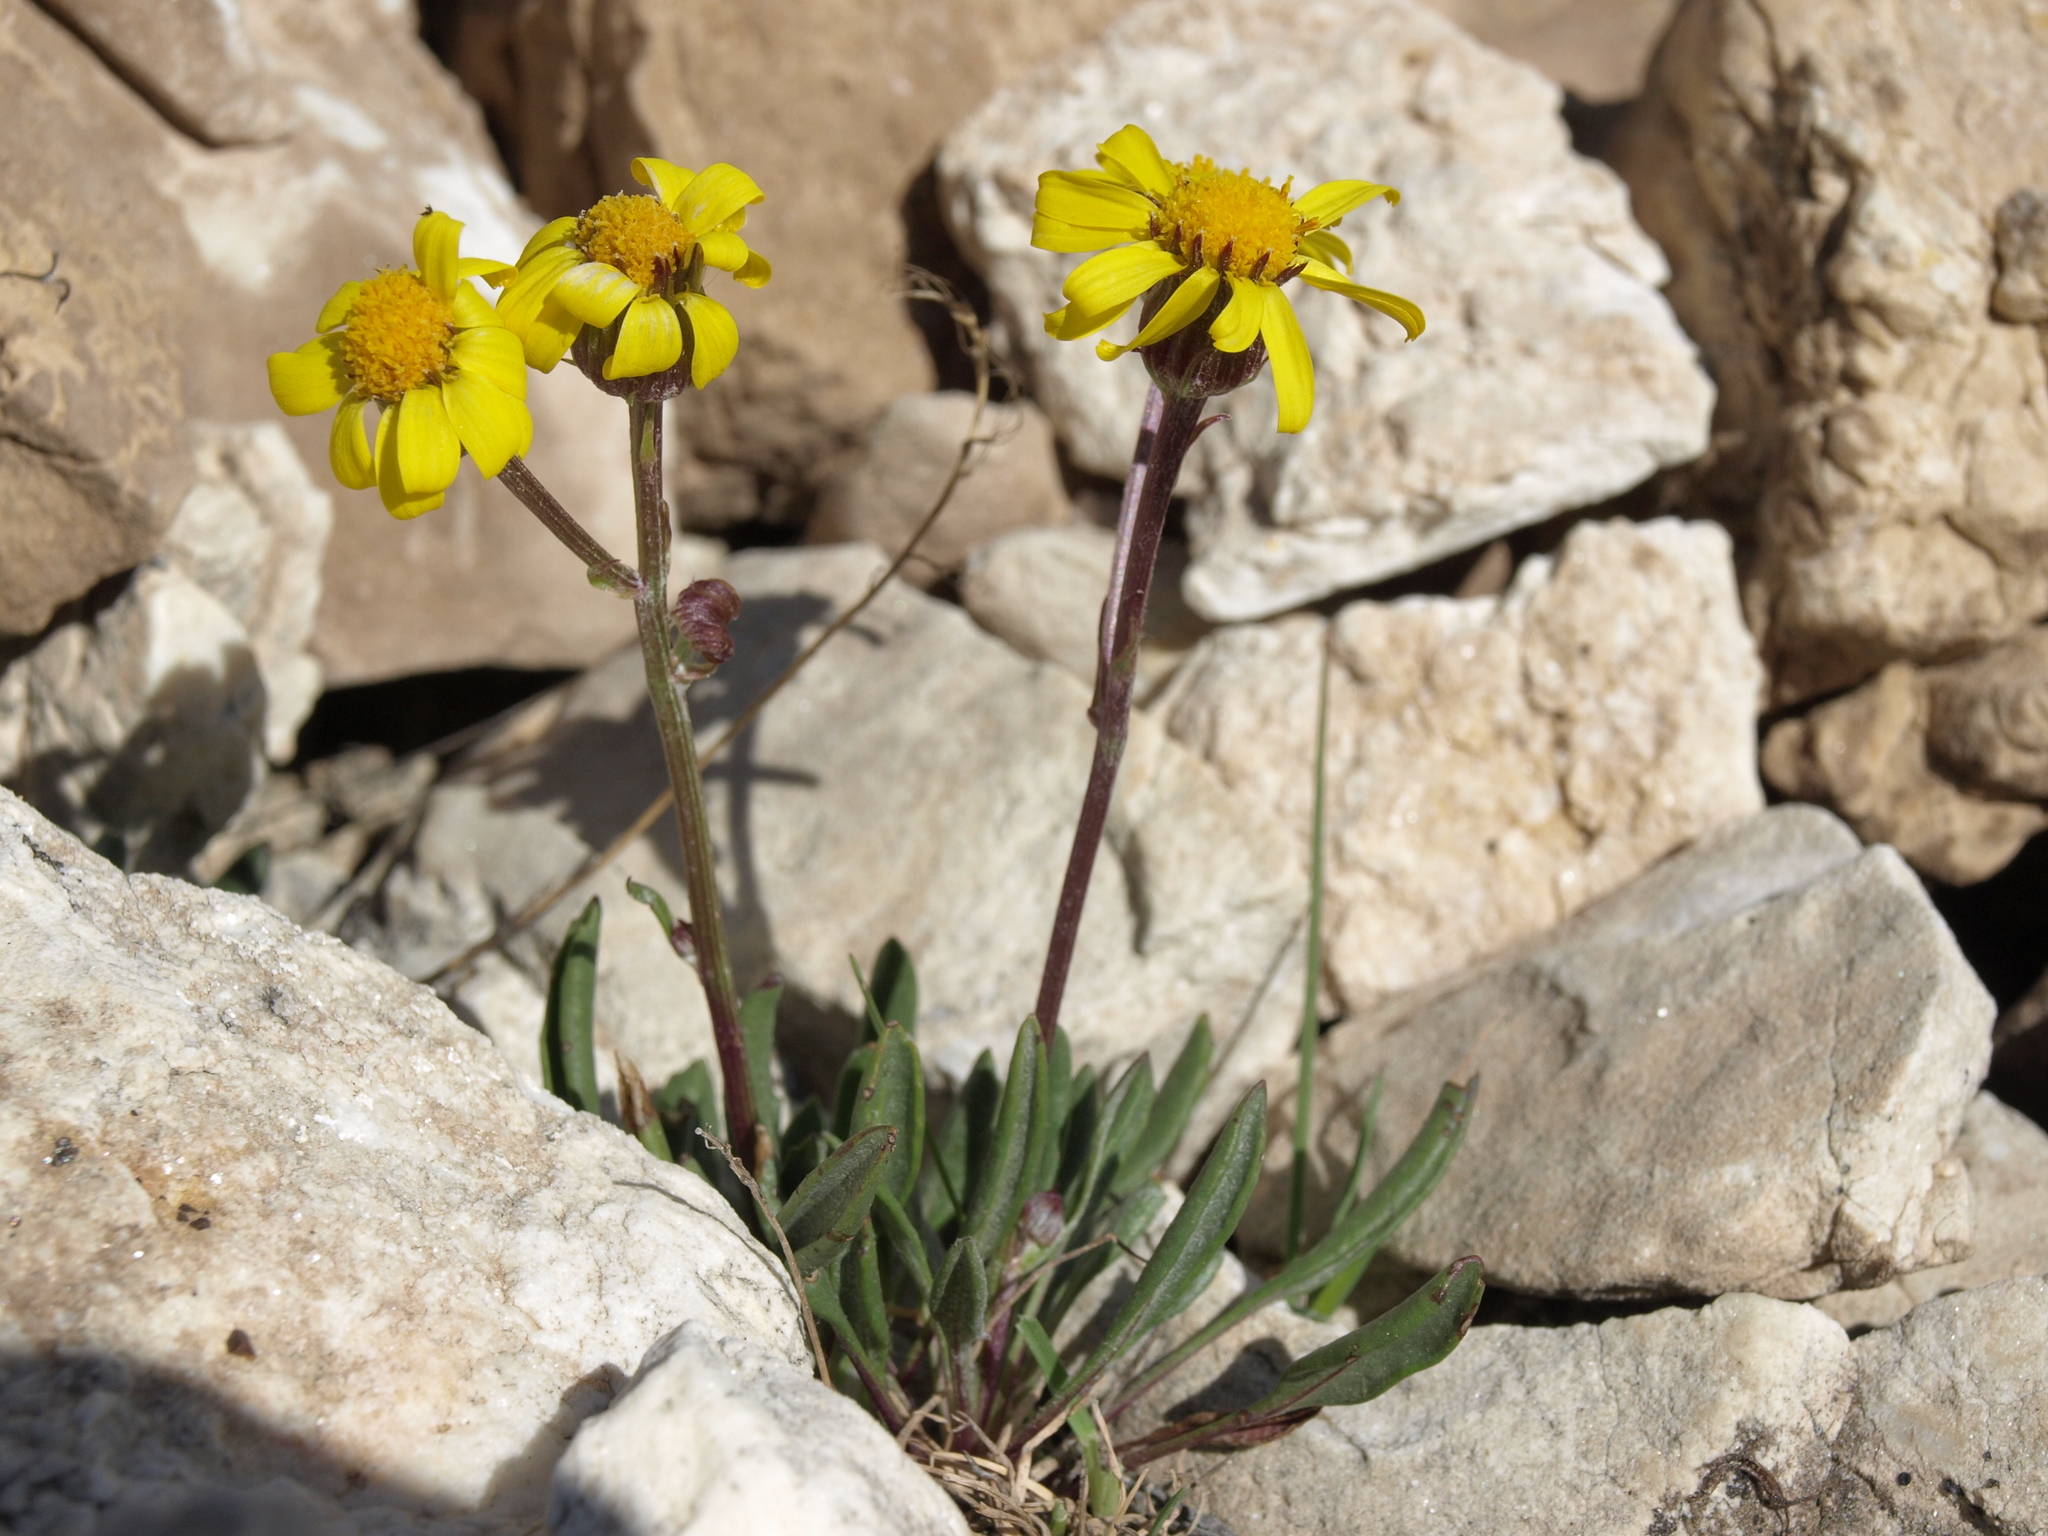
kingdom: Plantae
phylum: Tracheophyta
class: Magnoliopsida
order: Asterales
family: Asteraceae
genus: Packera
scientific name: Packera werneriifolia
